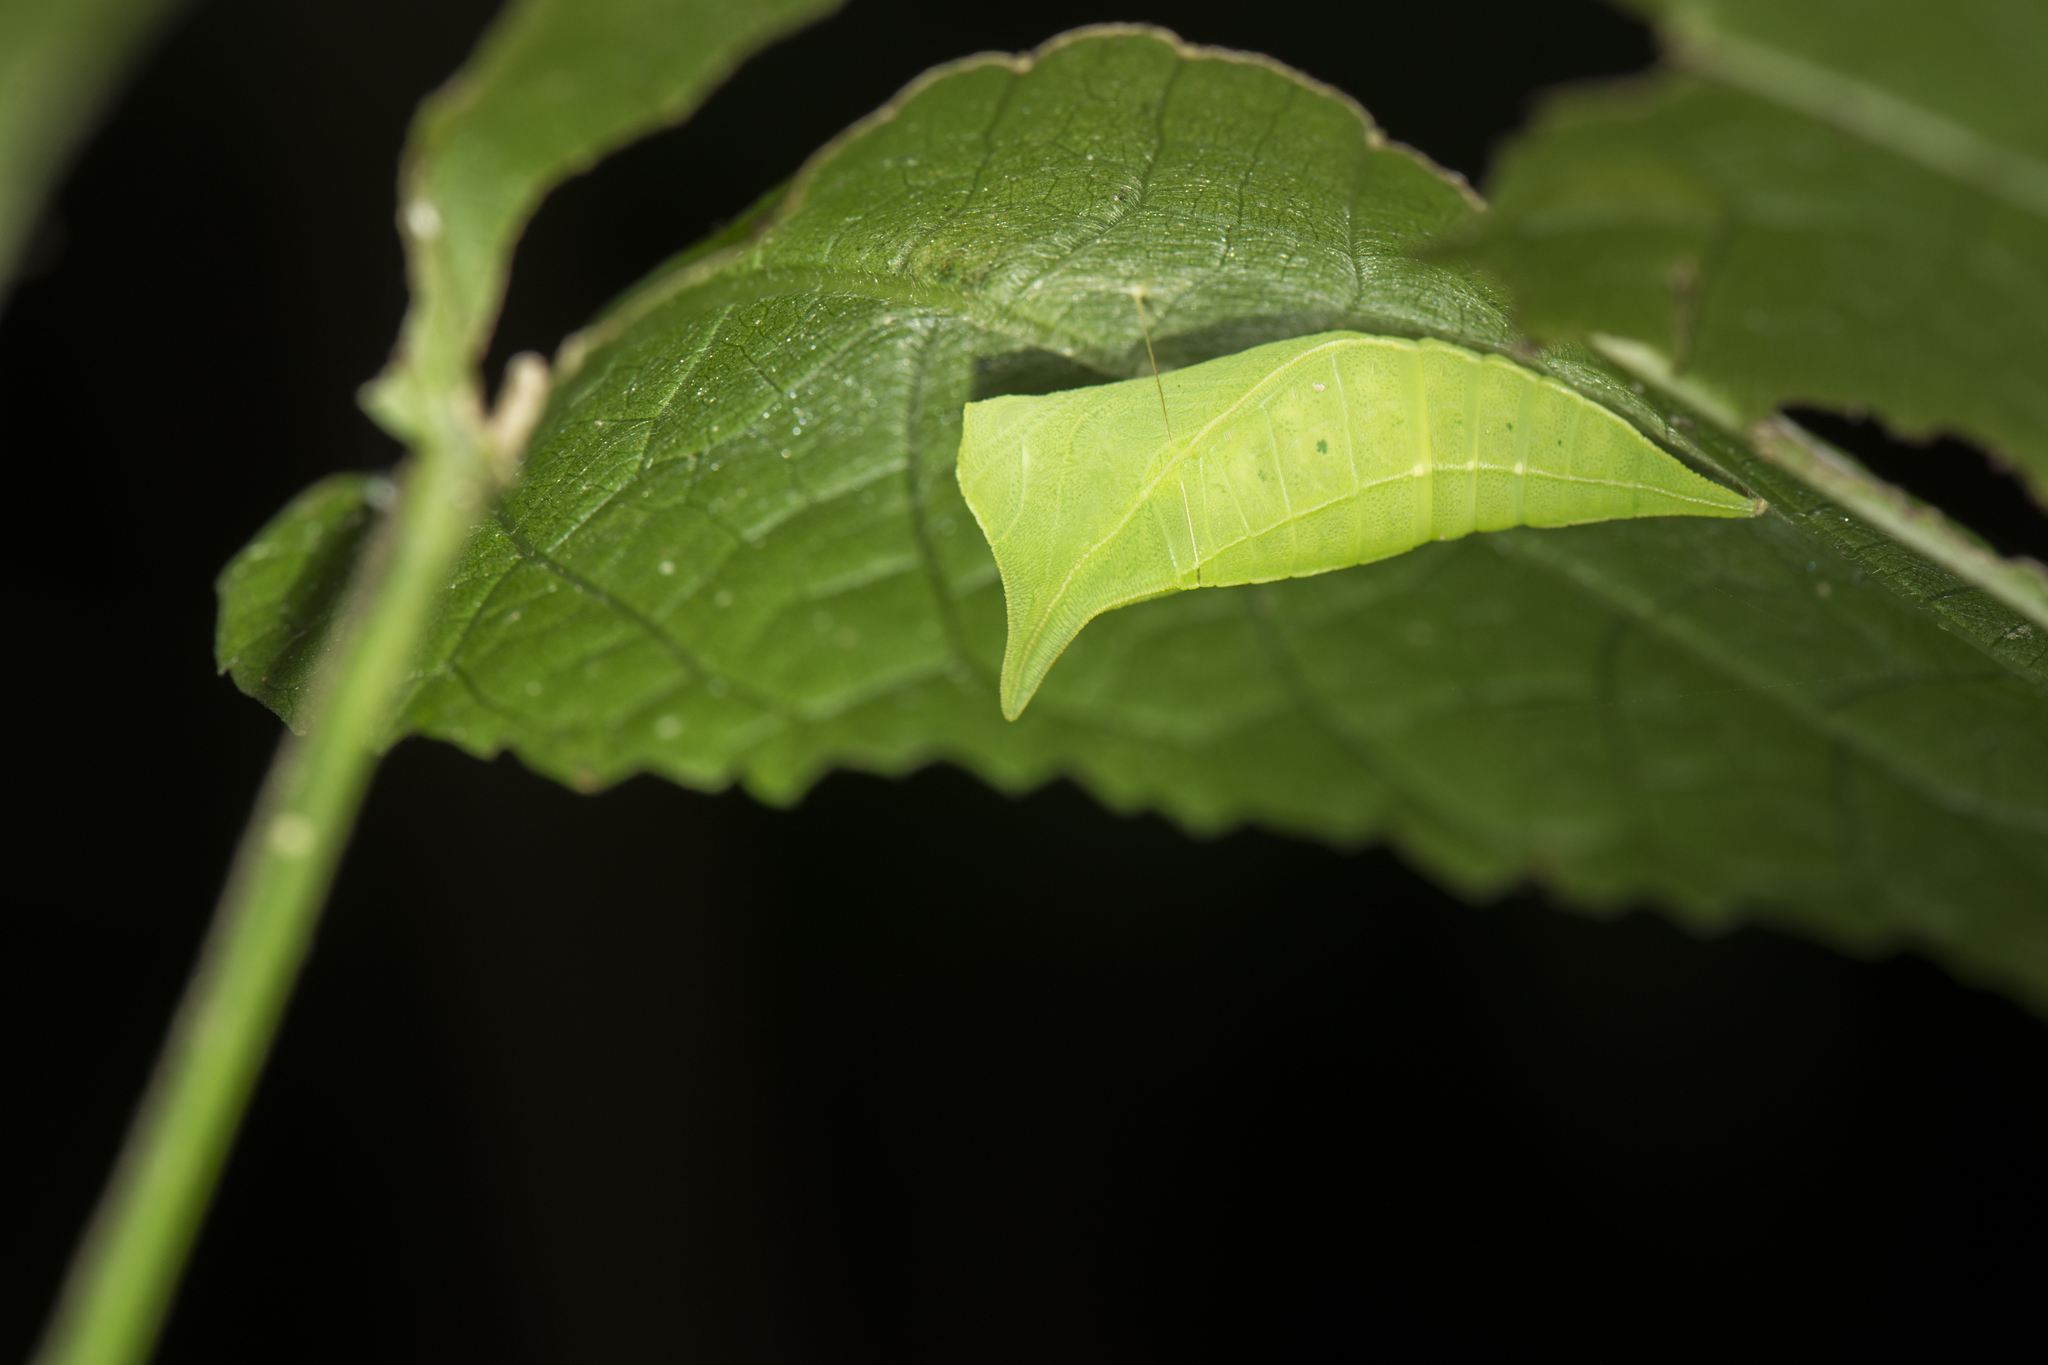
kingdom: Fungi
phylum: Ascomycota
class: Sordariomycetes
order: Microascales
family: Microascaceae
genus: Graphium
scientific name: Graphium sarpedon
